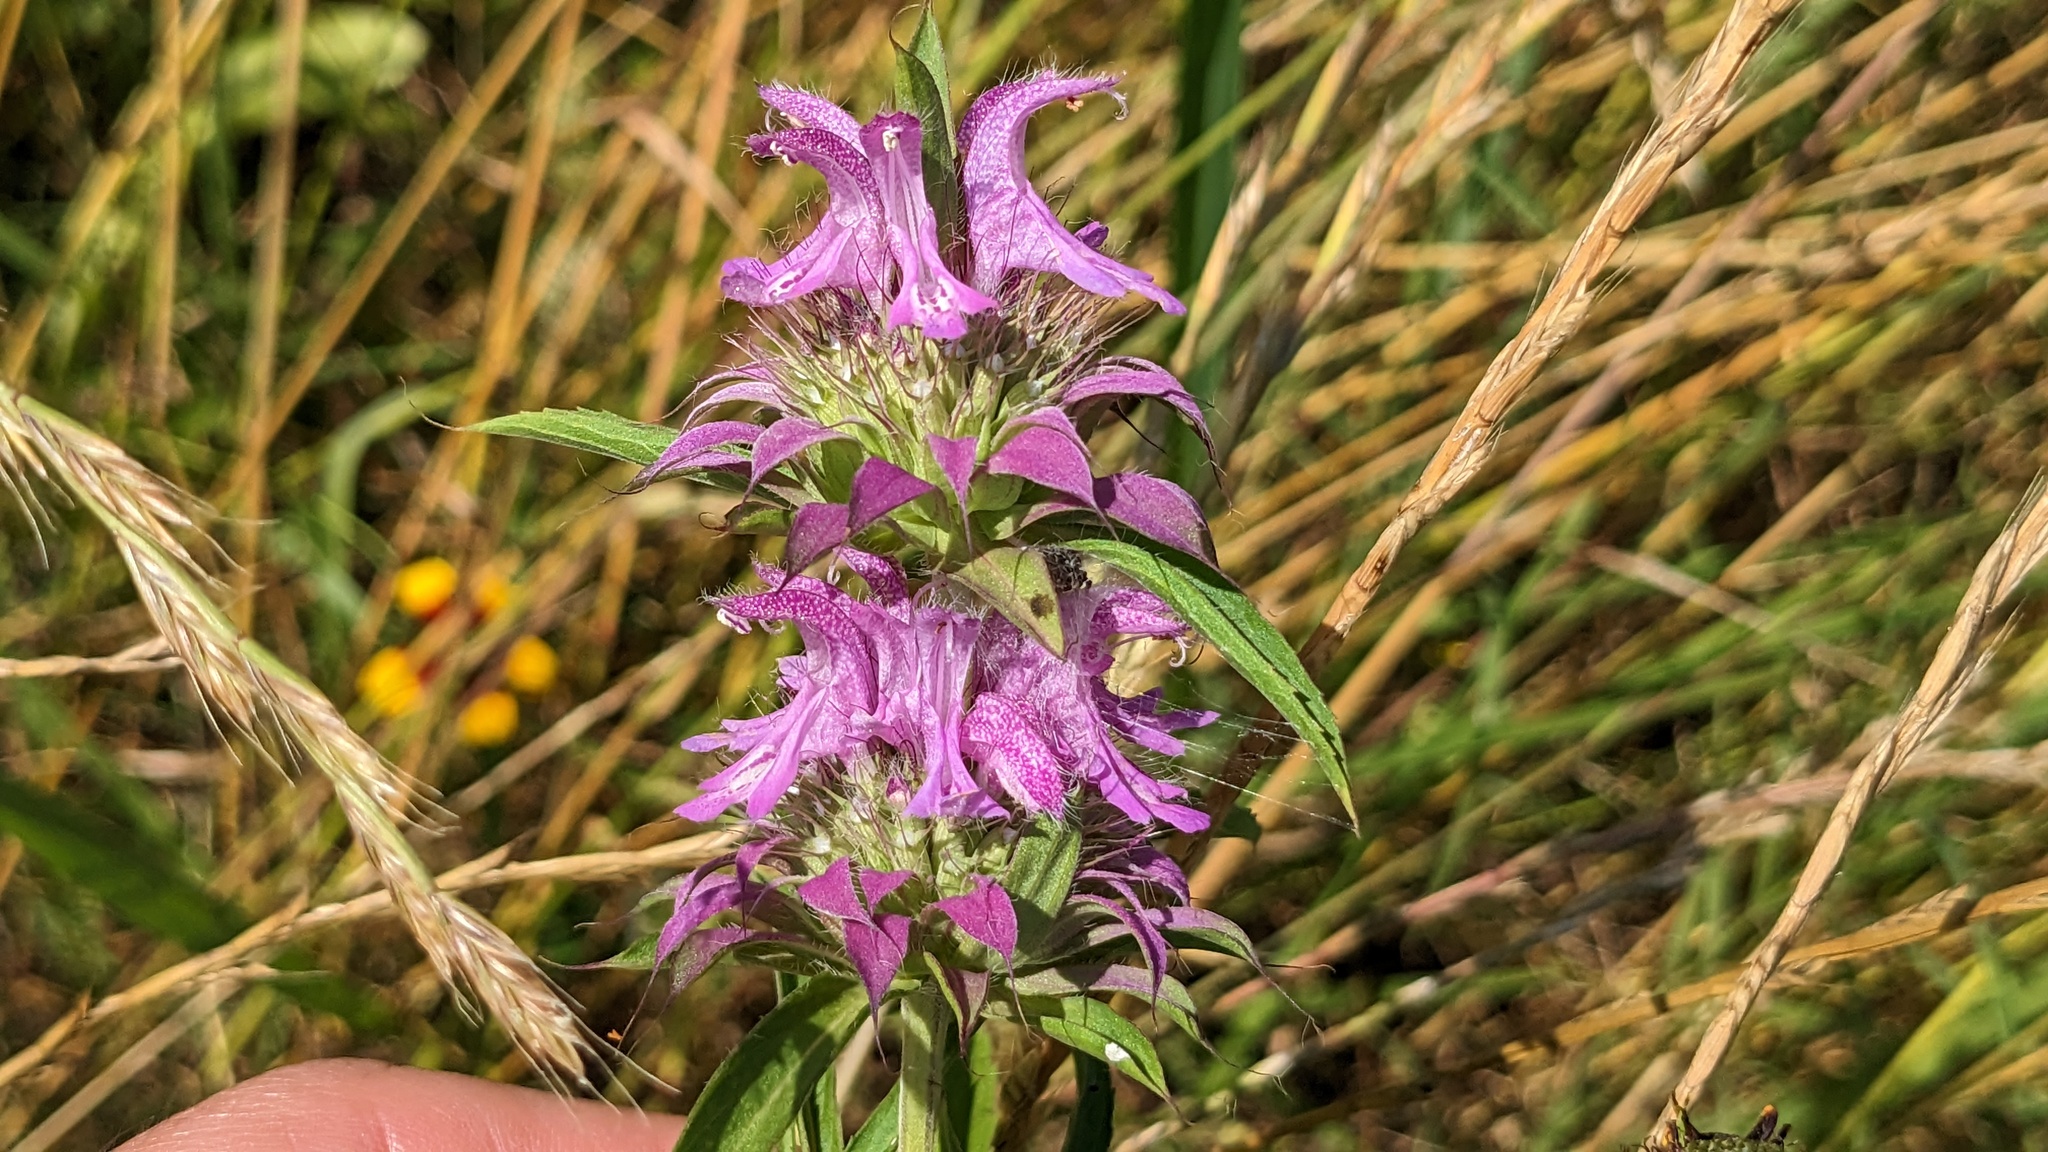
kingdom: Plantae
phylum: Tracheophyta
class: Magnoliopsida
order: Lamiales
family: Lamiaceae
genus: Monarda
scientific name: Monarda citriodora
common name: Lemon beebalm
